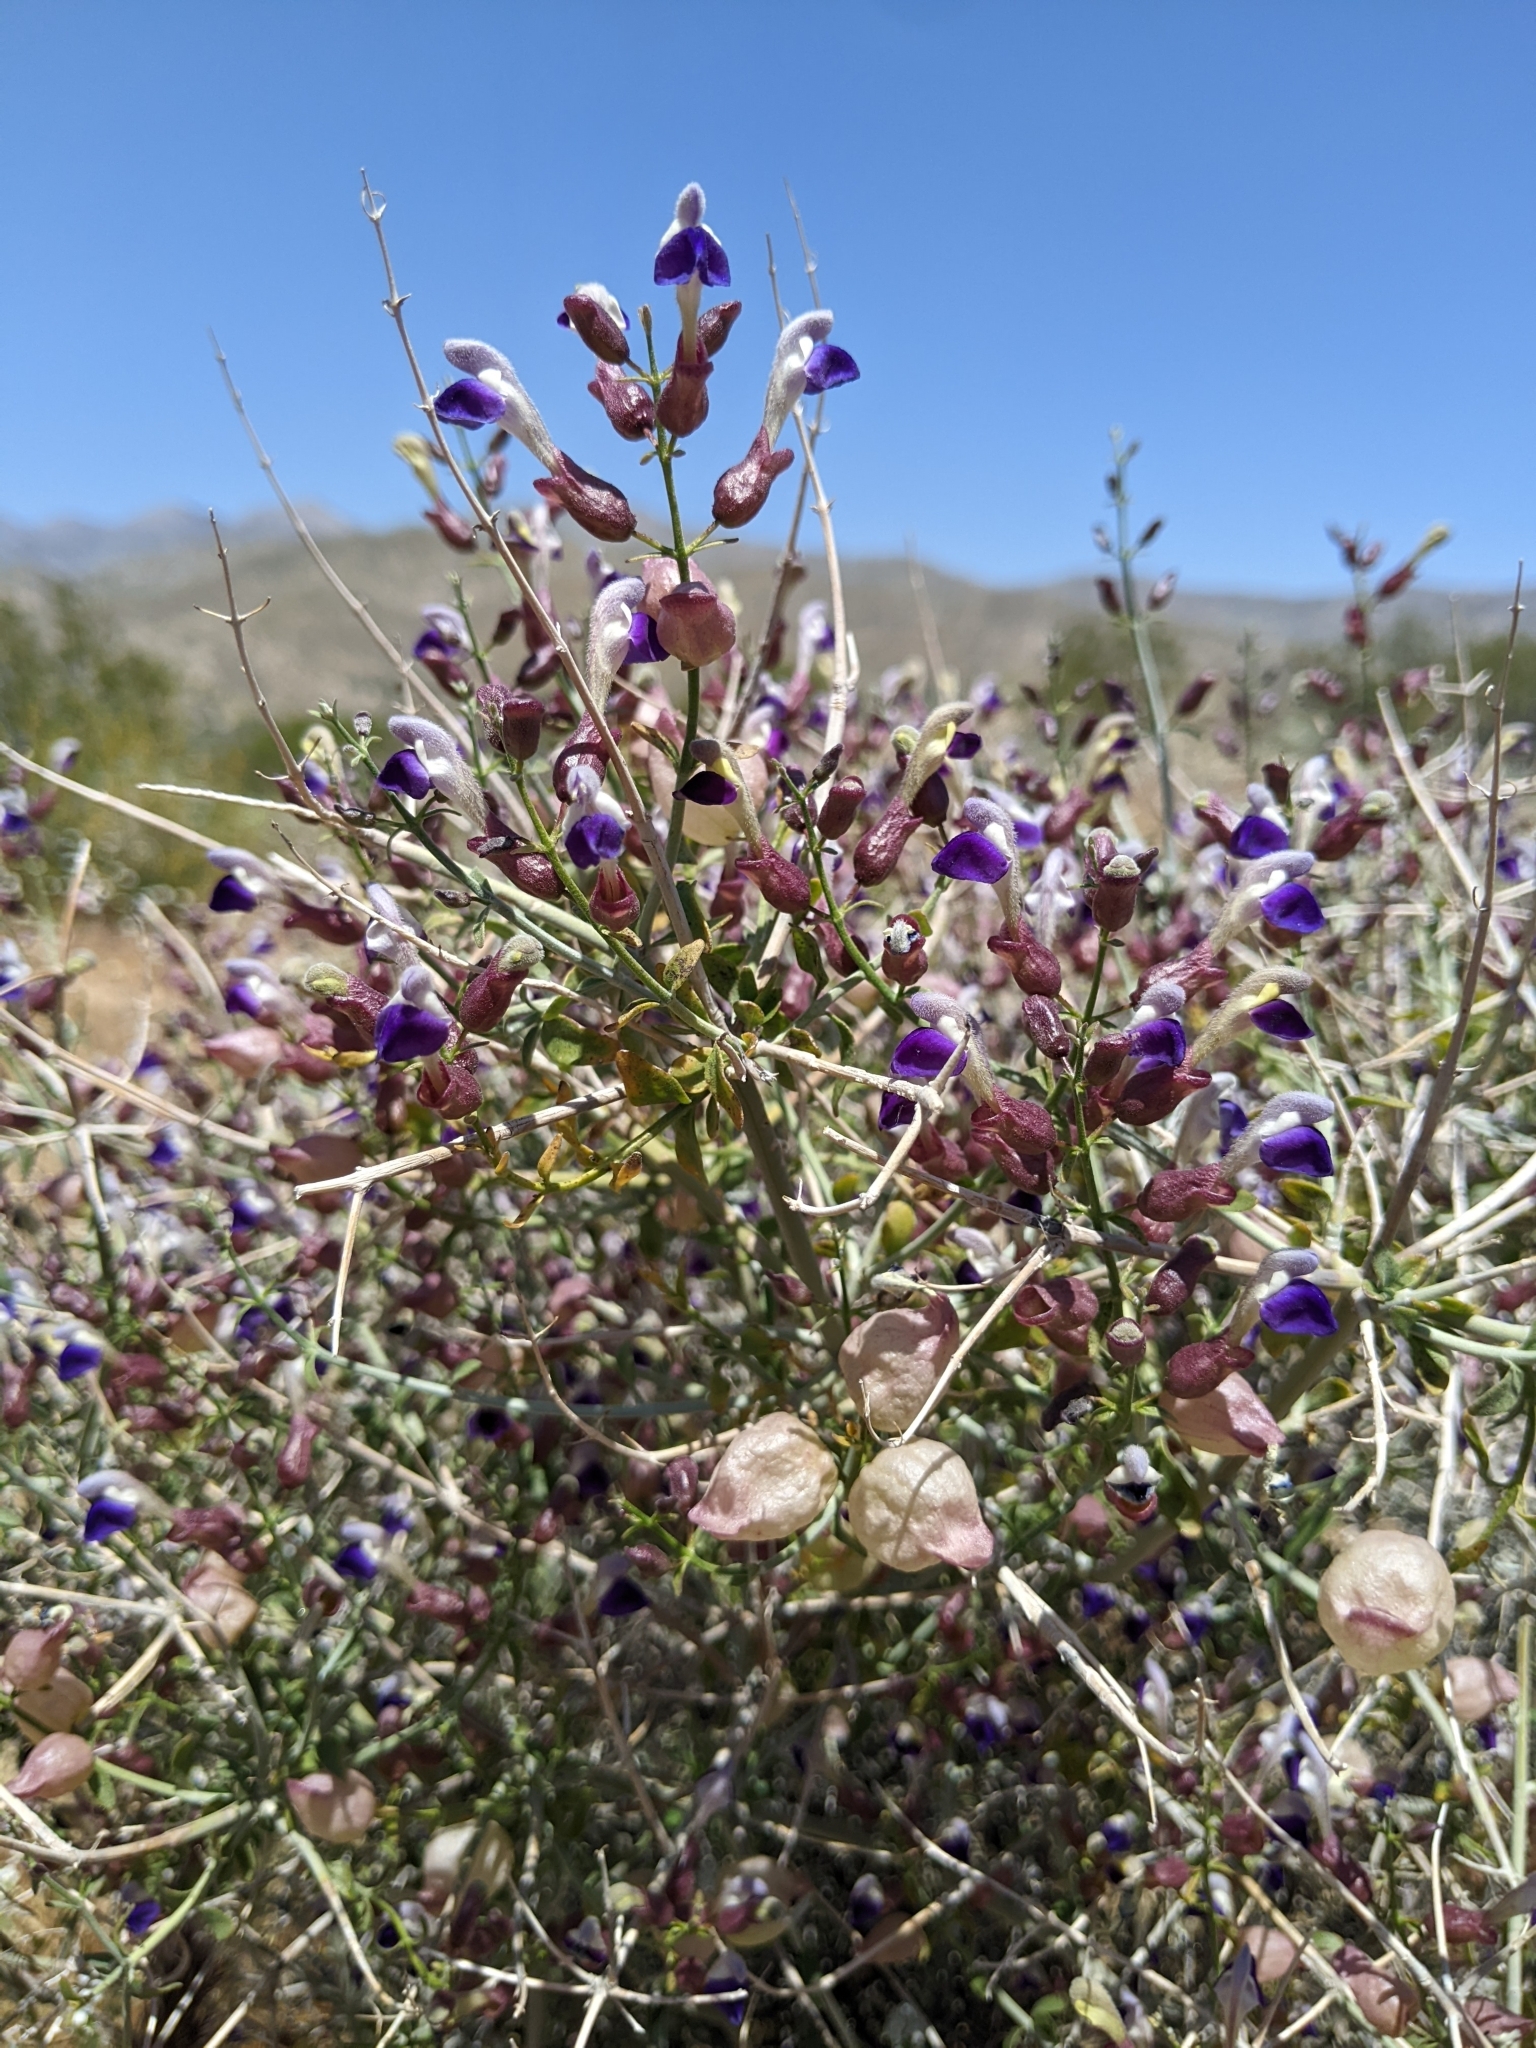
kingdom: Plantae
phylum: Tracheophyta
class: Magnoliopsida
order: Lamiales
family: Lamiaceae
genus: Scutellaria
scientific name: Scutellaria mexicana
